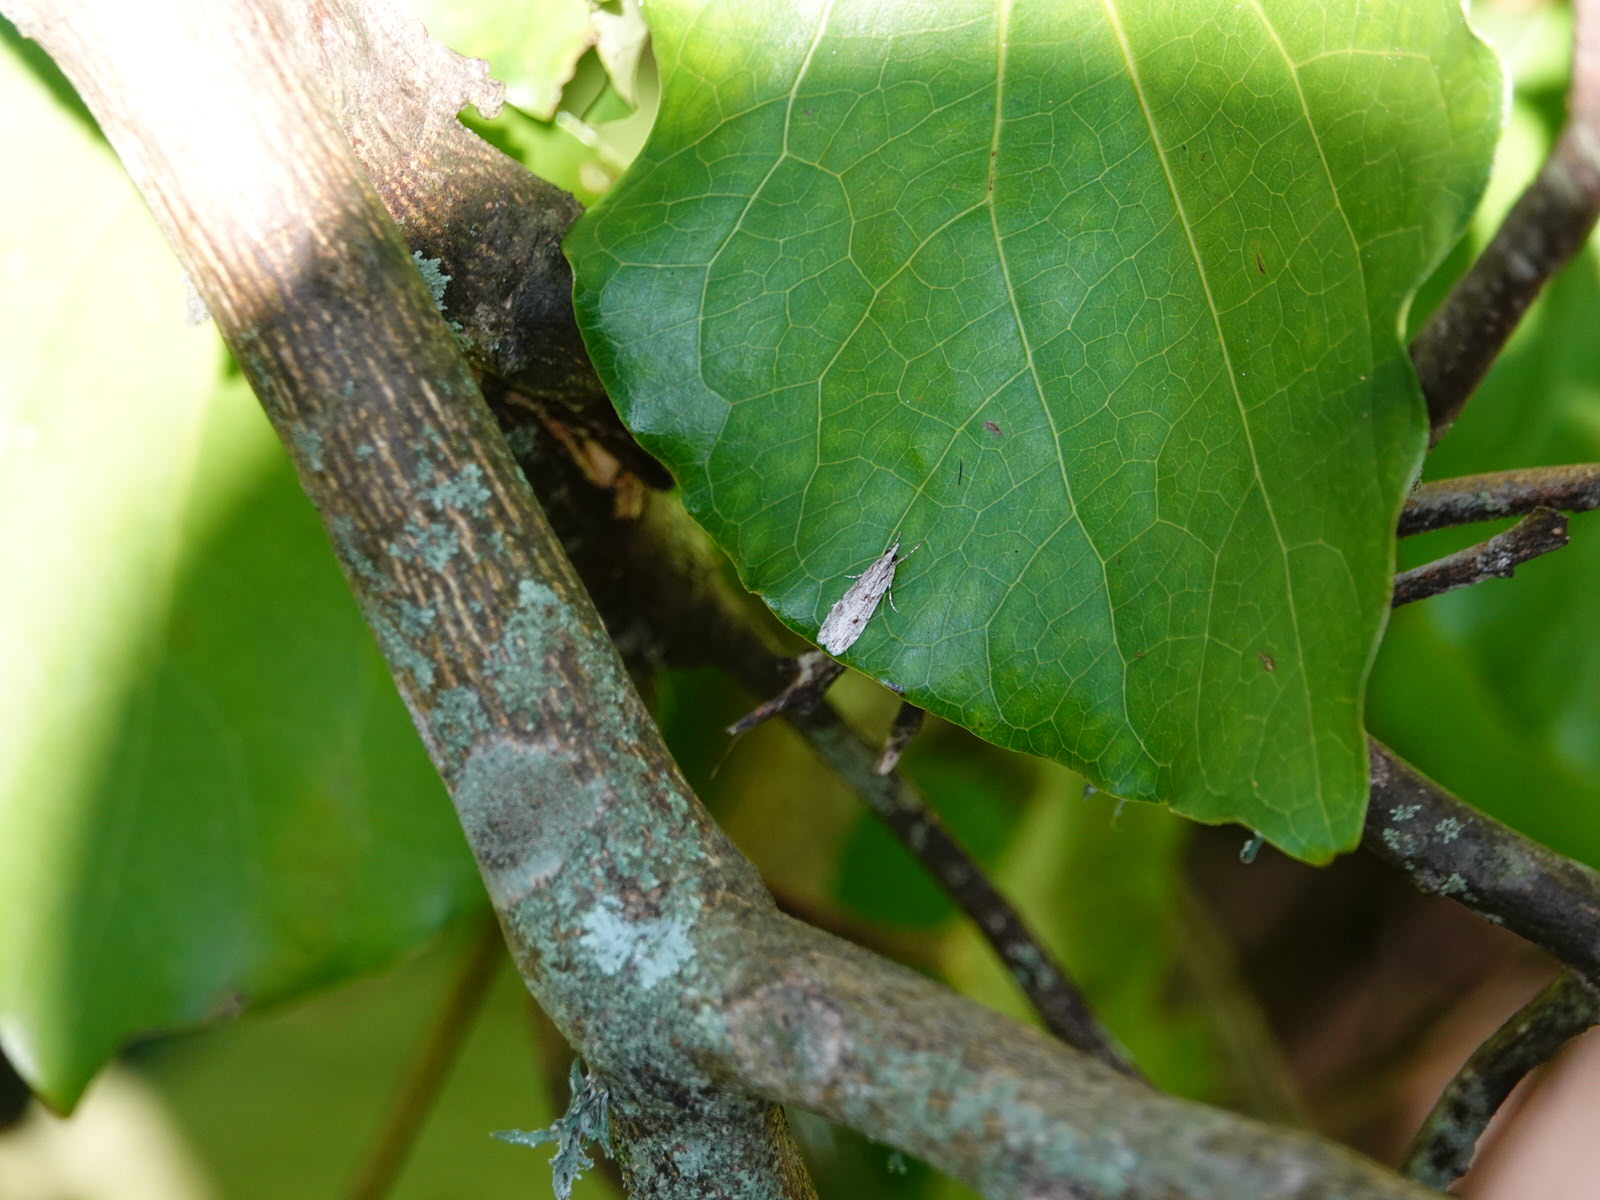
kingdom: Animalia
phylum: Arthropoda
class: Insecta
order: Lepidoptera
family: Crambidae
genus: Scoparia
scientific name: Scoparia chalicodes
